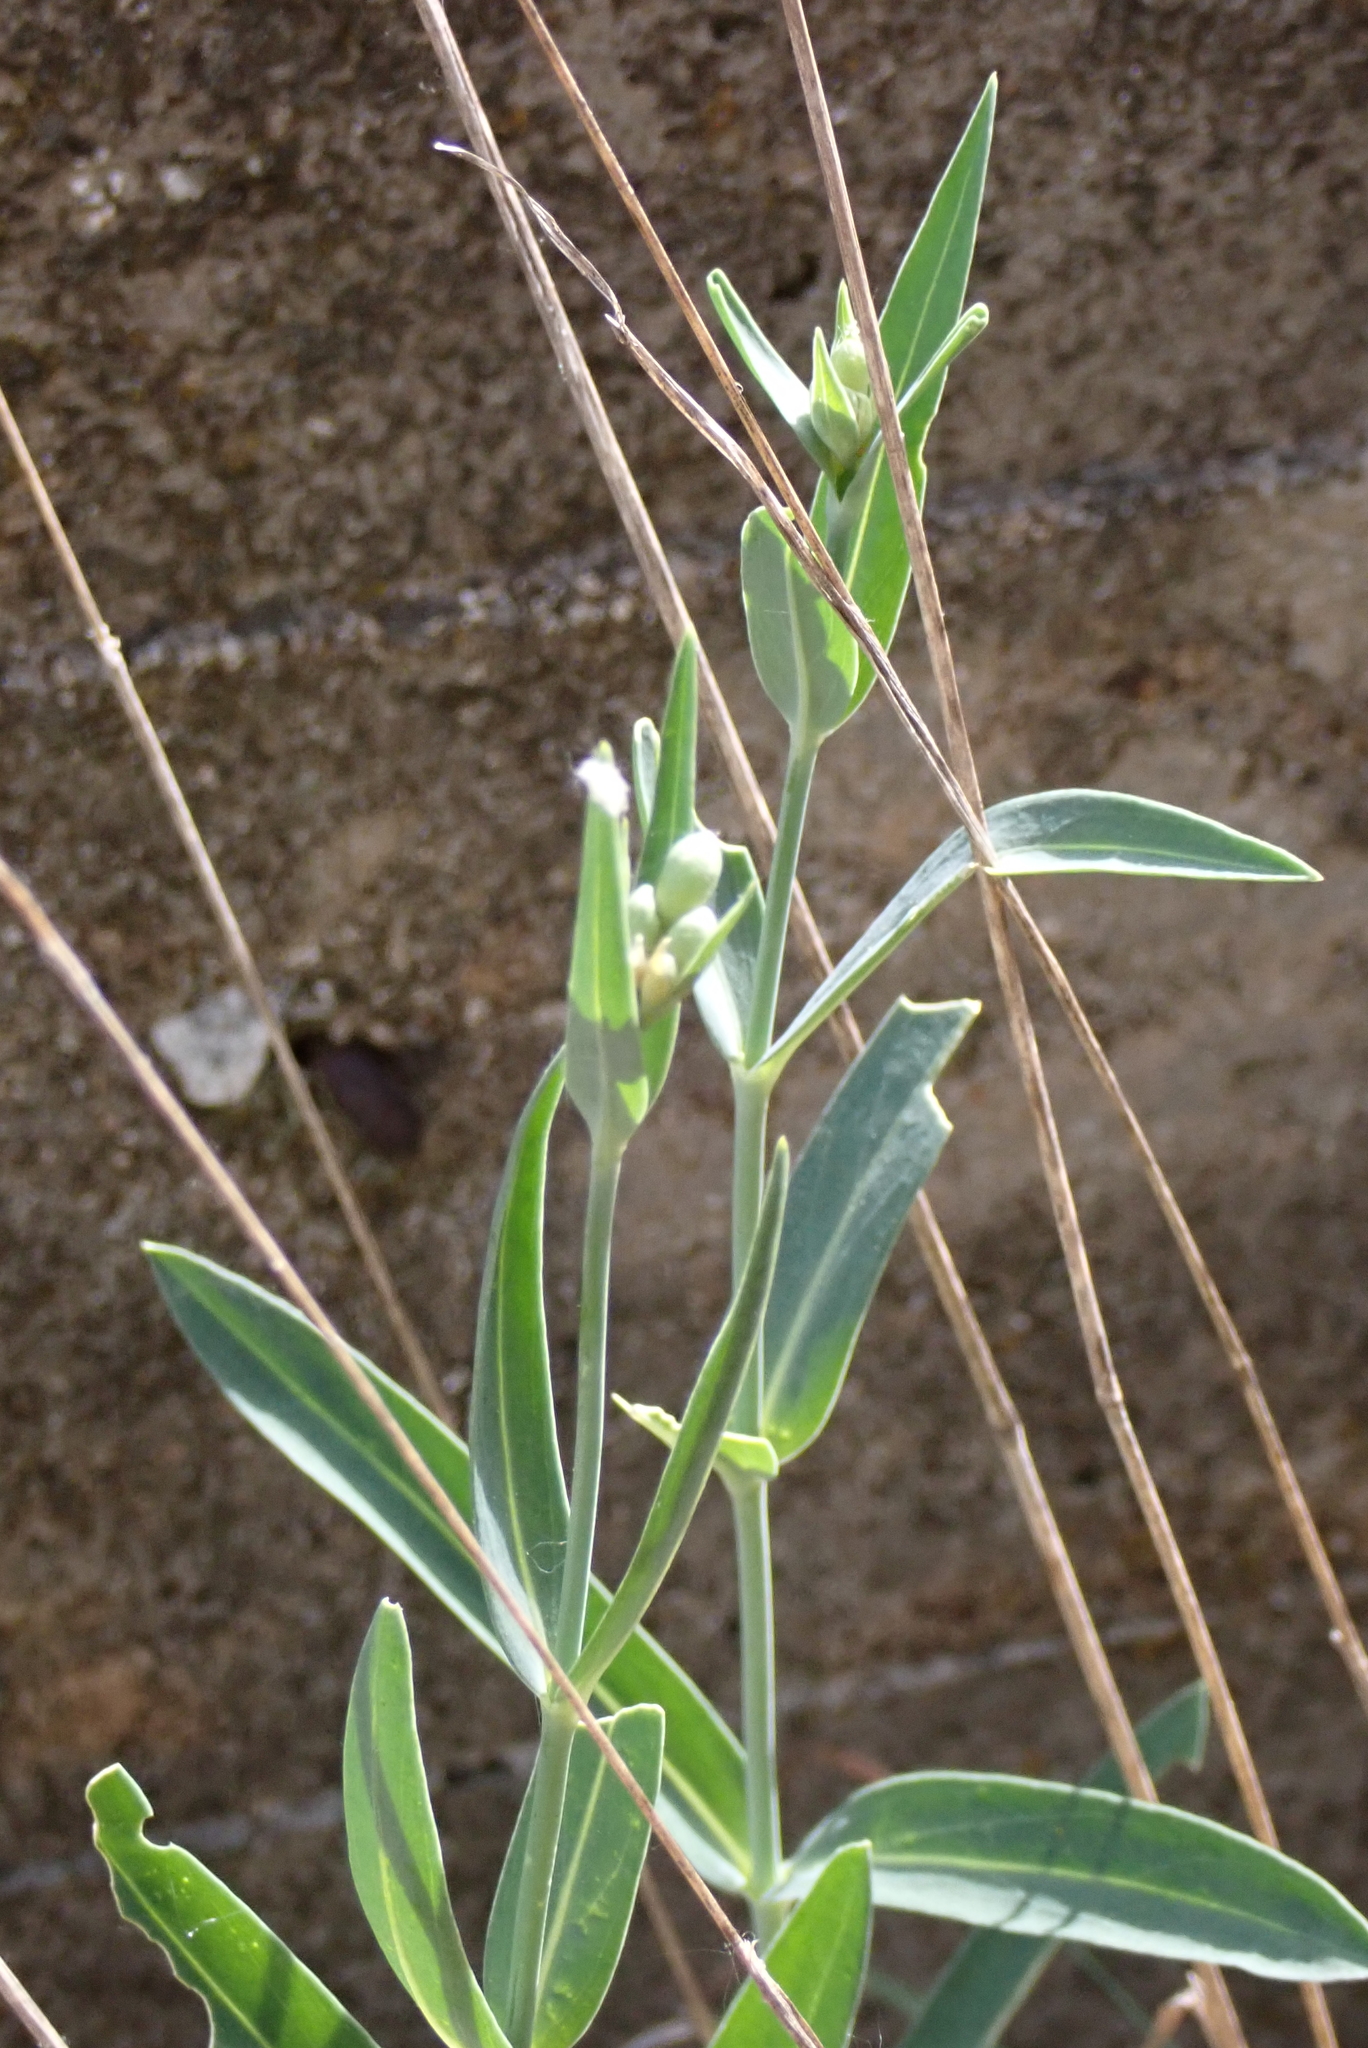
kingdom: Plantae
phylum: Tracheophyta
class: Magnoliopsida
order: Caryophyllales
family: Caryophyllaceae
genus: Silene
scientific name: Silene vulgaris
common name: Bladder campion
